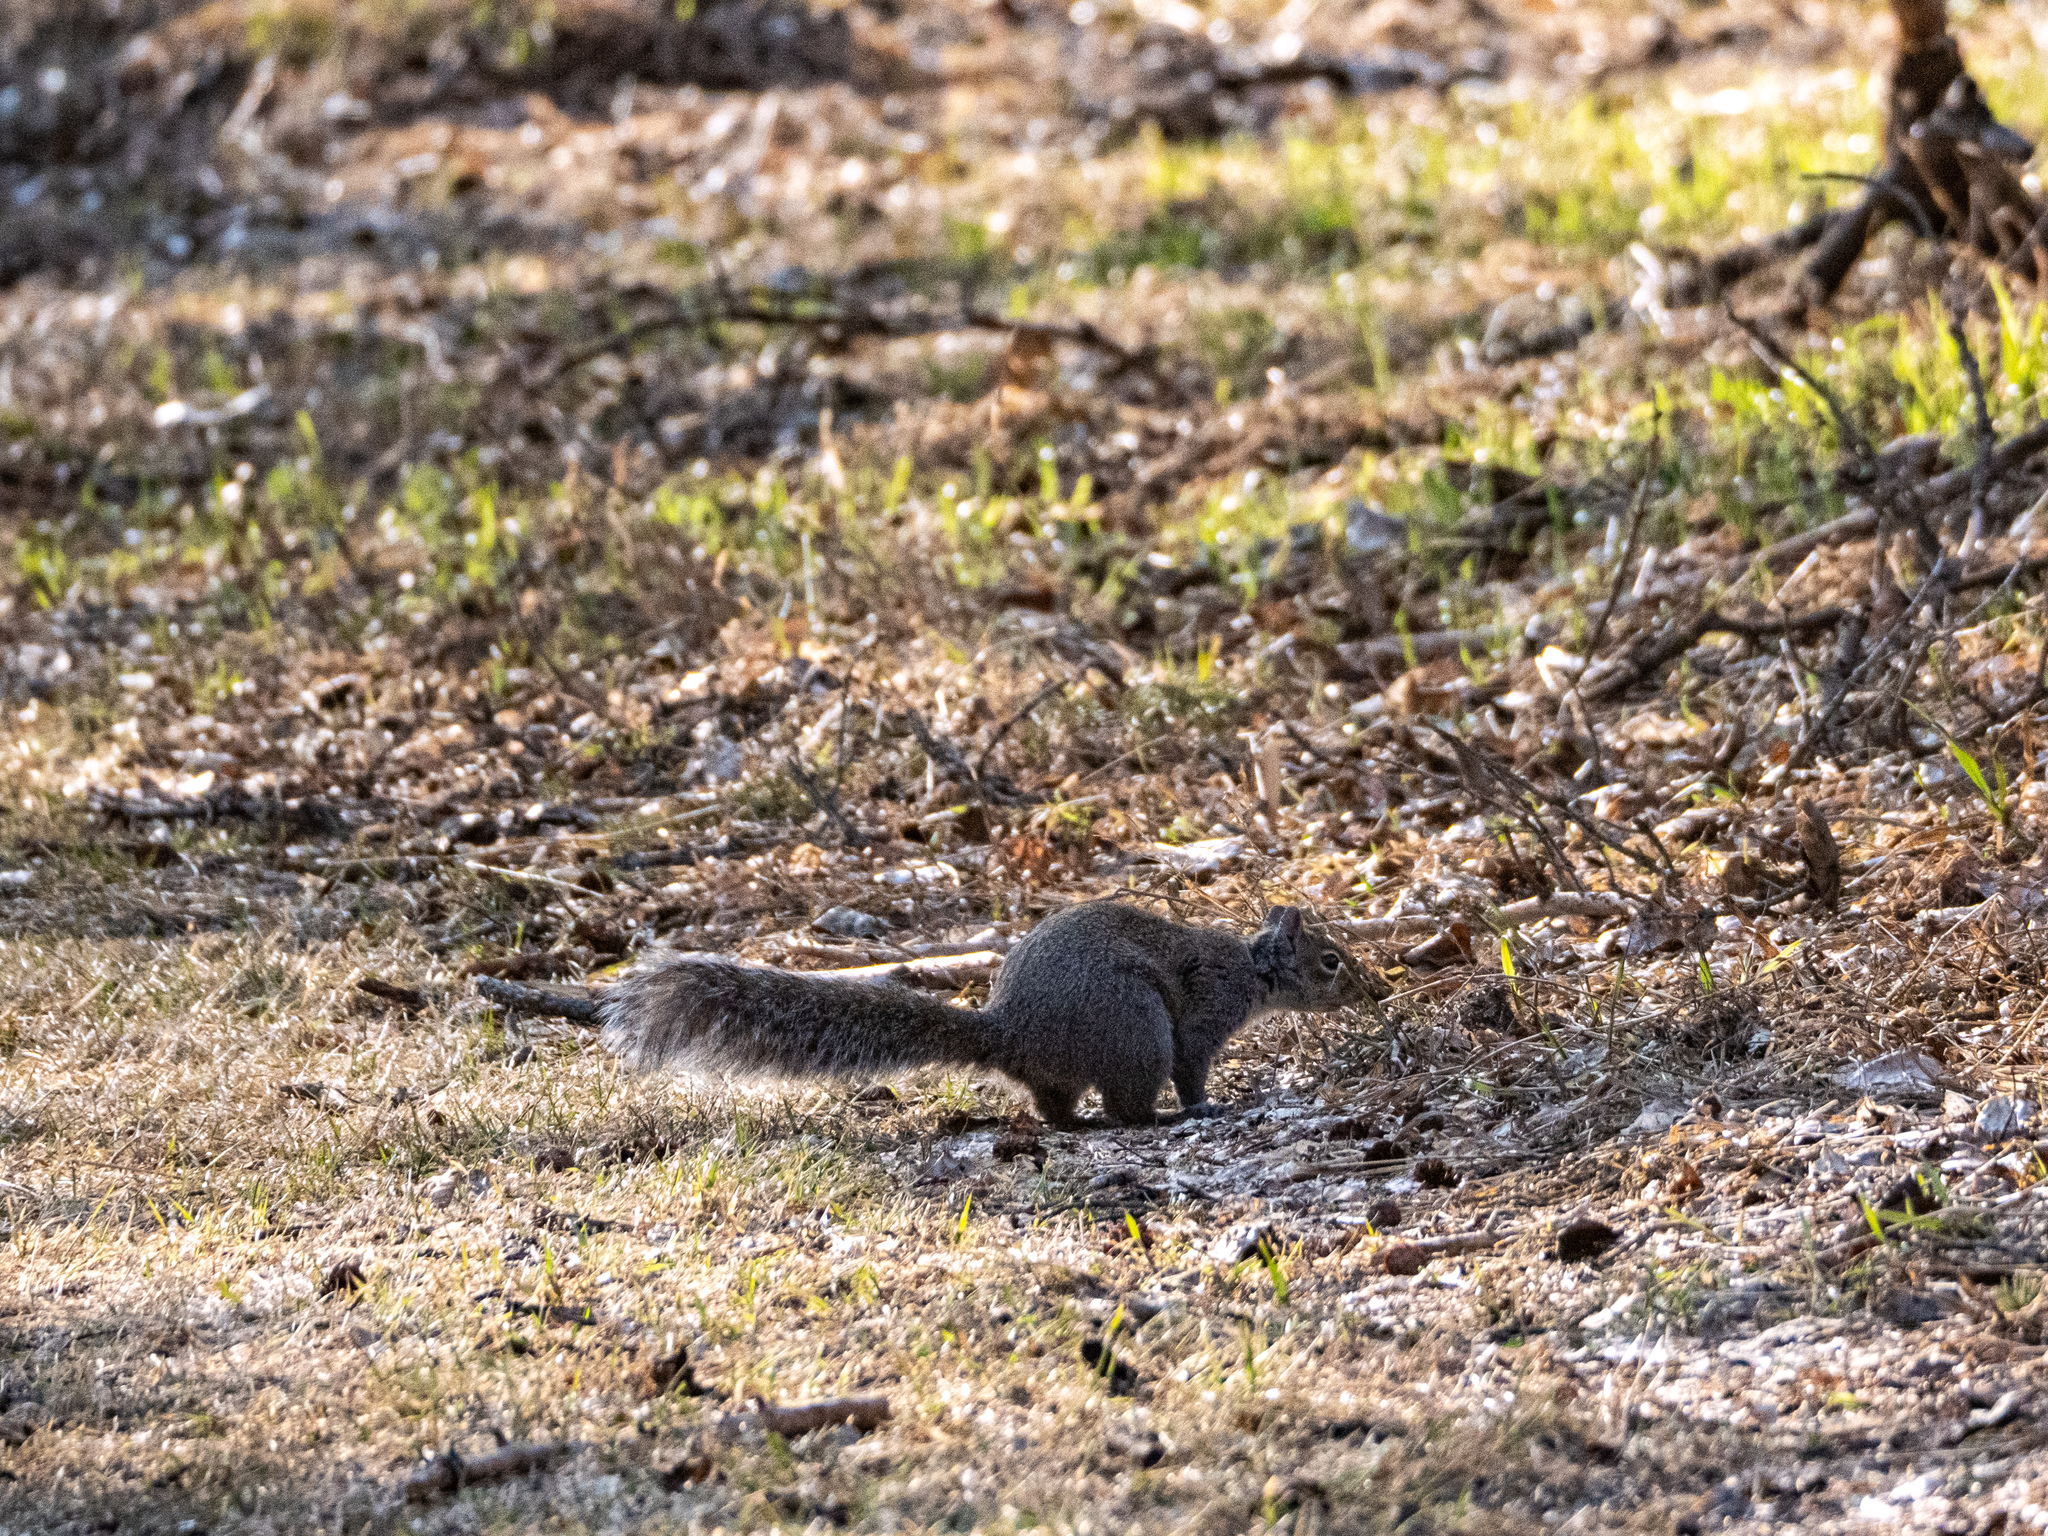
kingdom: Animalia
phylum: Chordata
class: Mammalia
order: Rodentia
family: Sciuridae
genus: Sciurus
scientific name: Sciurus carolinensis
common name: Eastern gray squirrel
